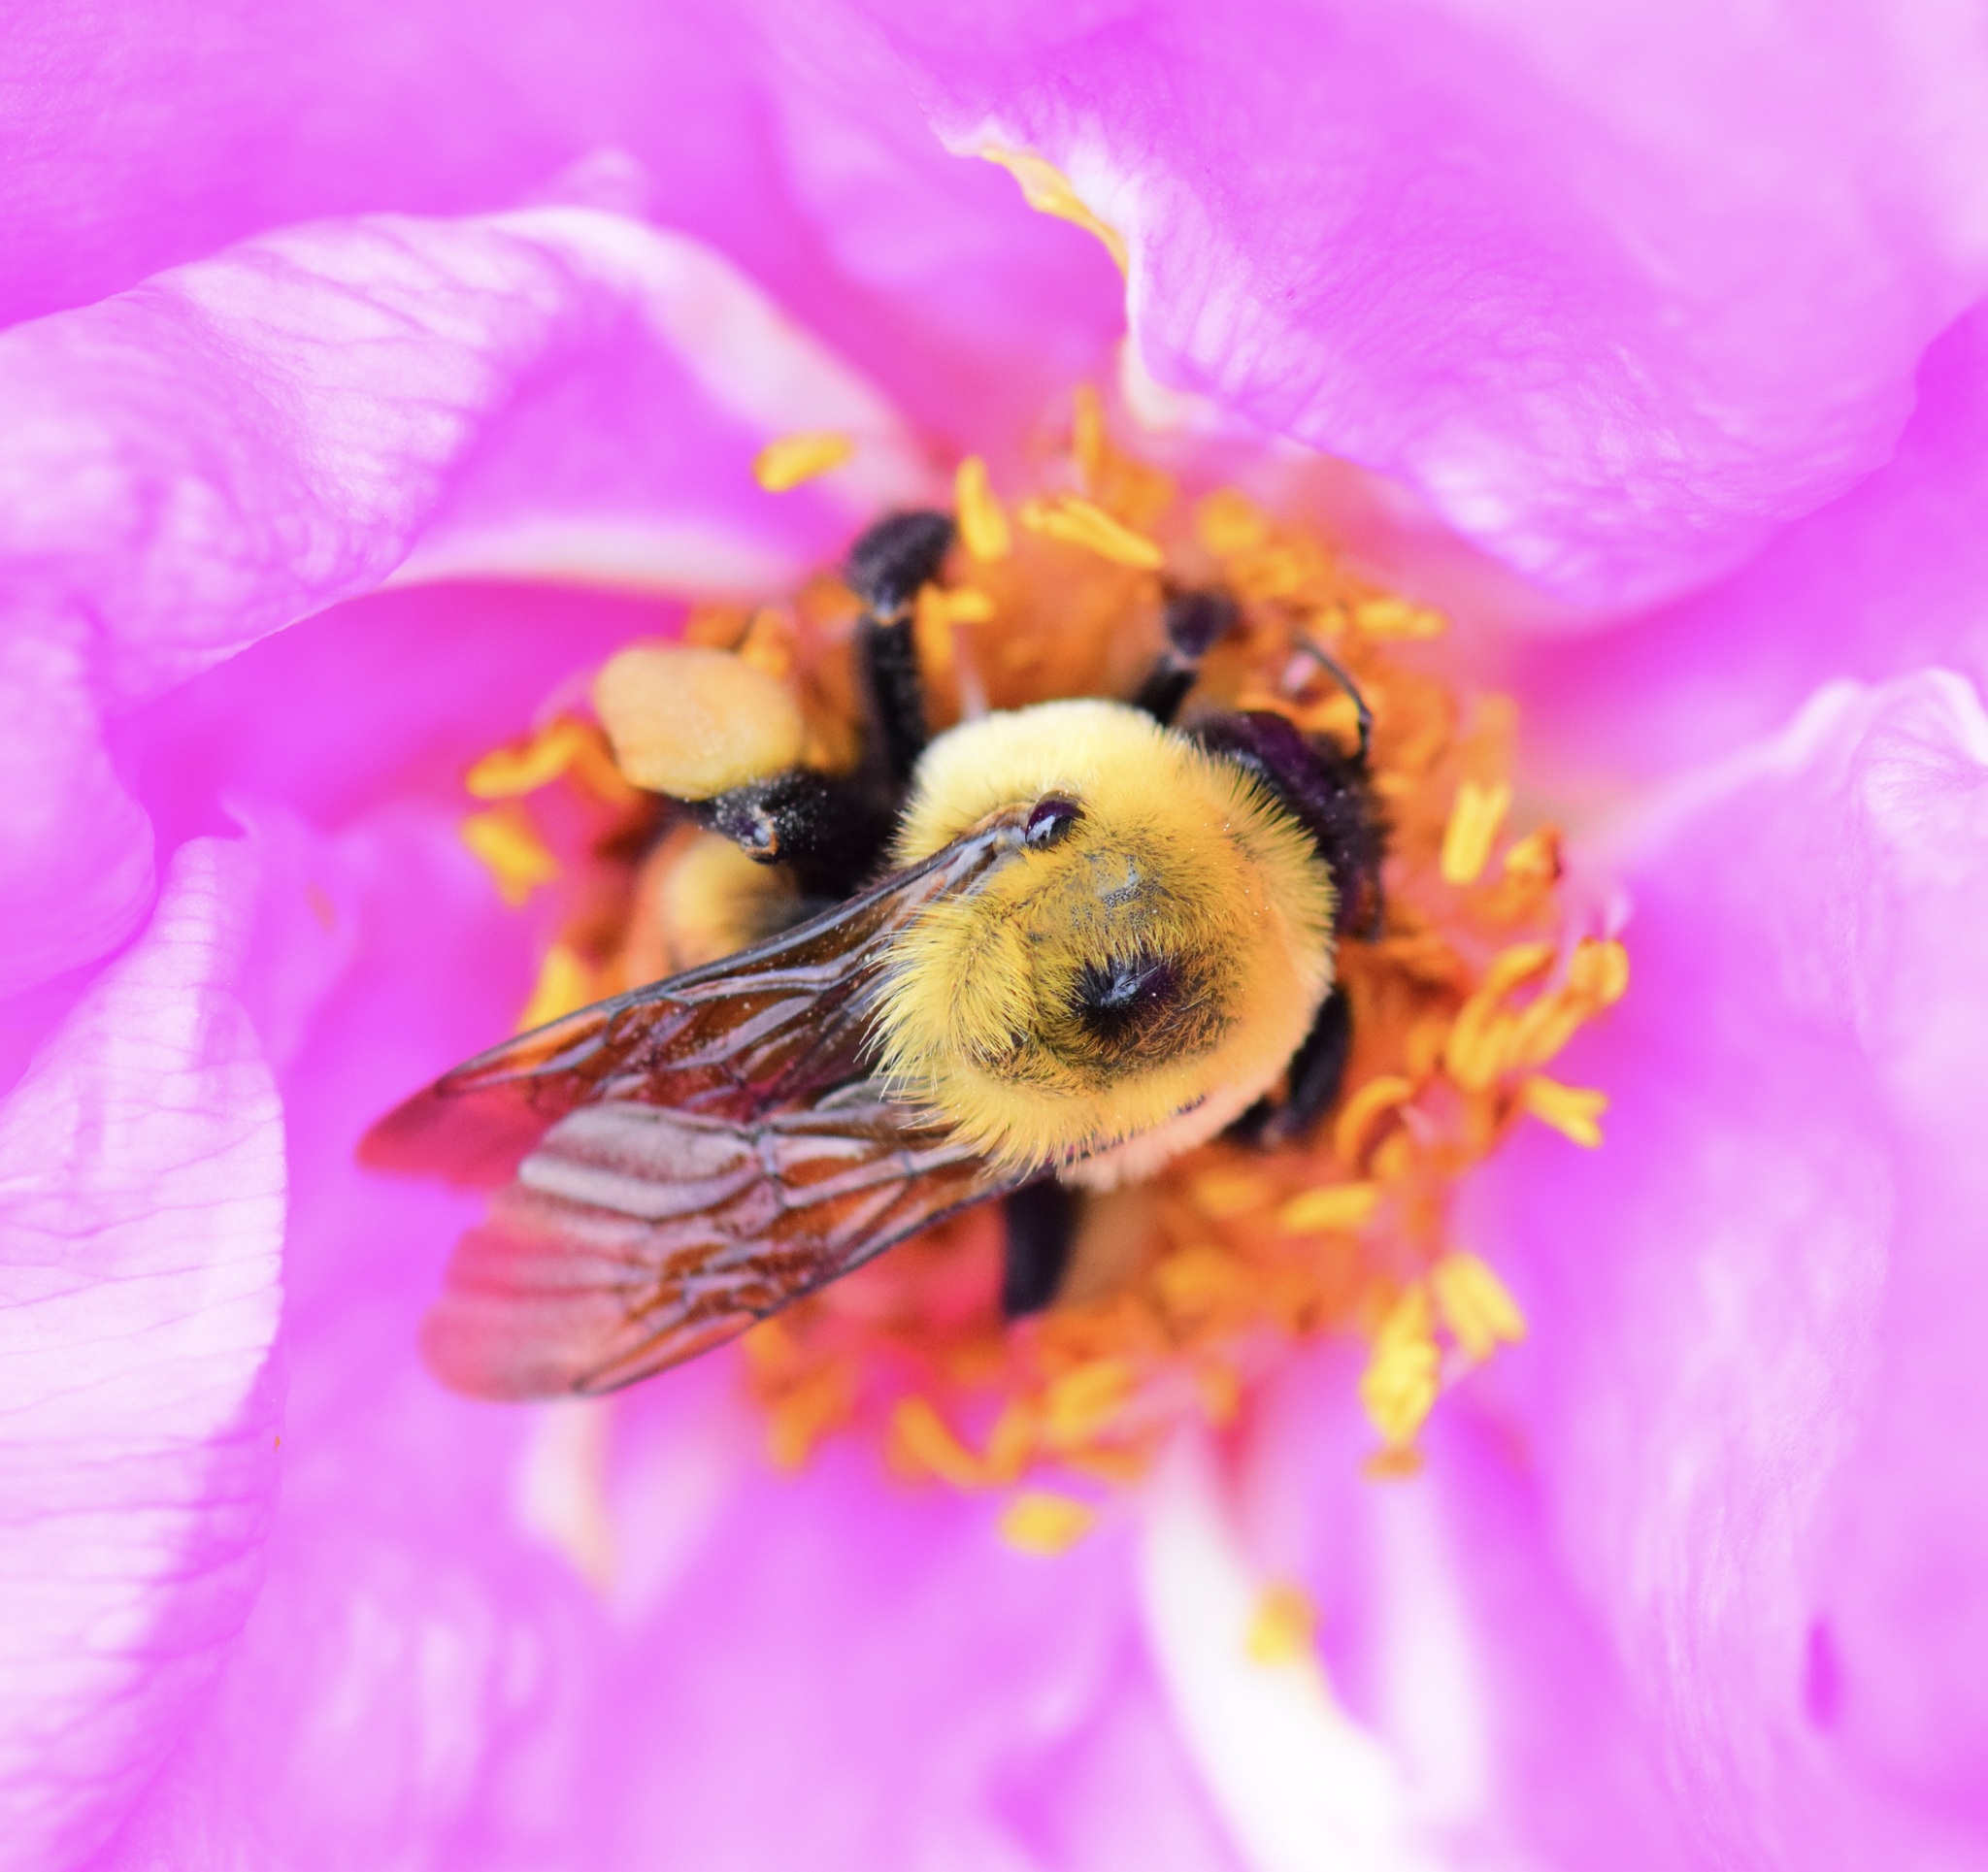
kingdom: Animalia
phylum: Arthropoda
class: Insecta
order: Hymenoptera
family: Apidae
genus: Bombus
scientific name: Bombus griseocollis
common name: Brown-belted bumble bee
